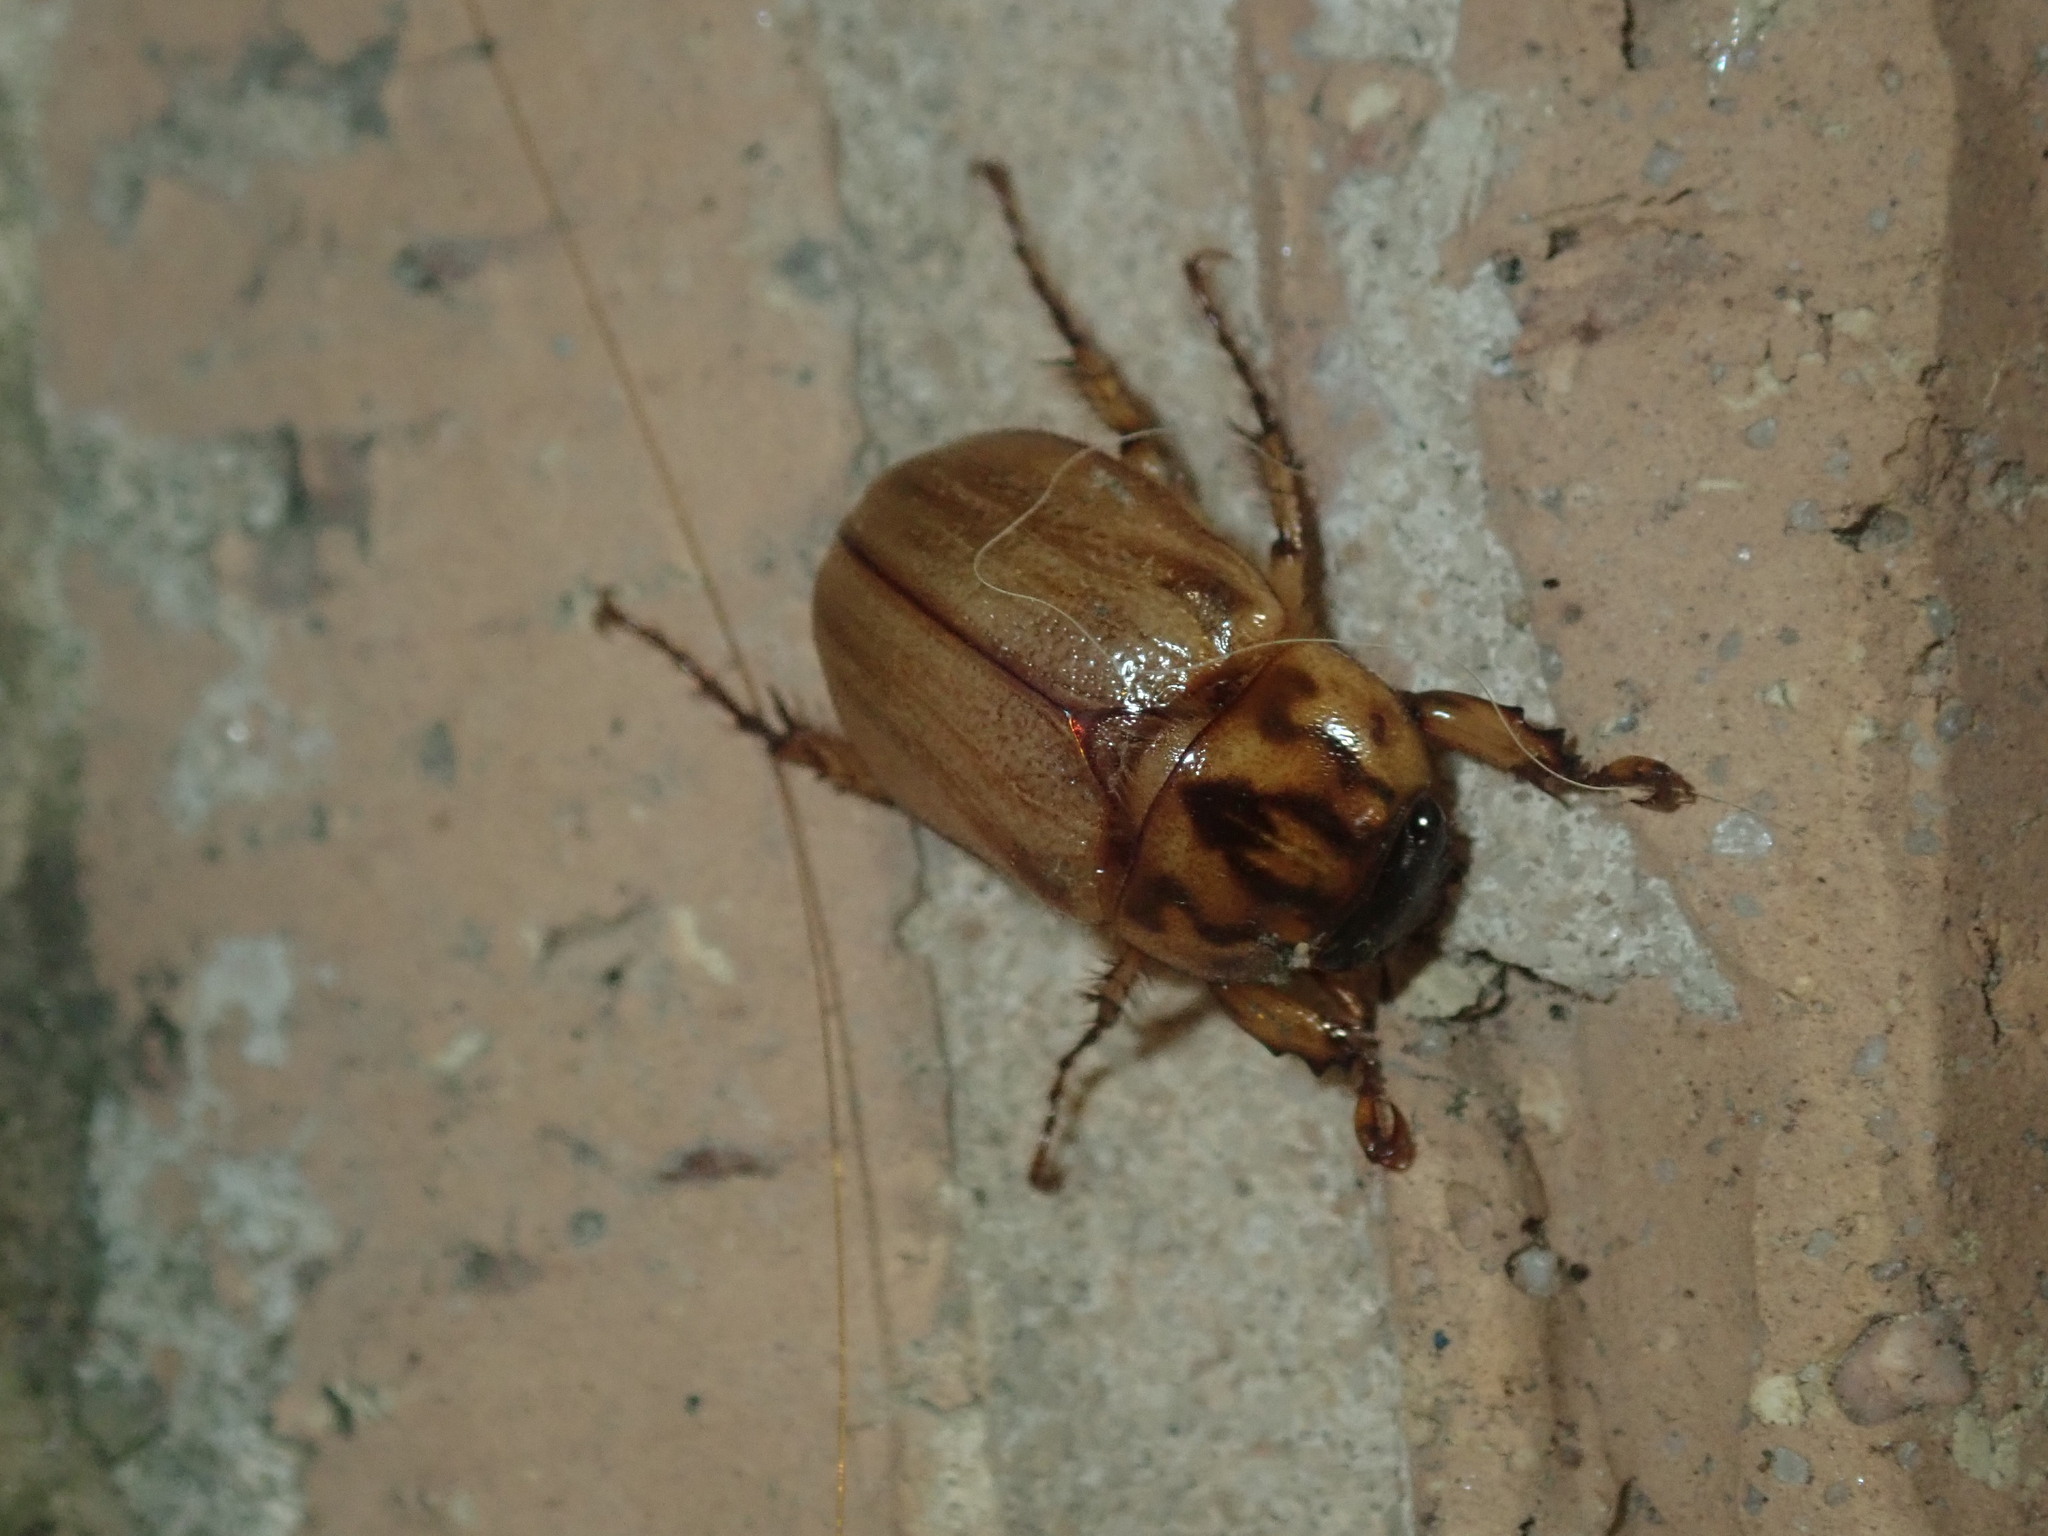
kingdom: Animalia
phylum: Arthropoda
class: Insecta
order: Coleoptera
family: Scarabaeidae
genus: Cyclocephala
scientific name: Cyclocephala signaticollis
